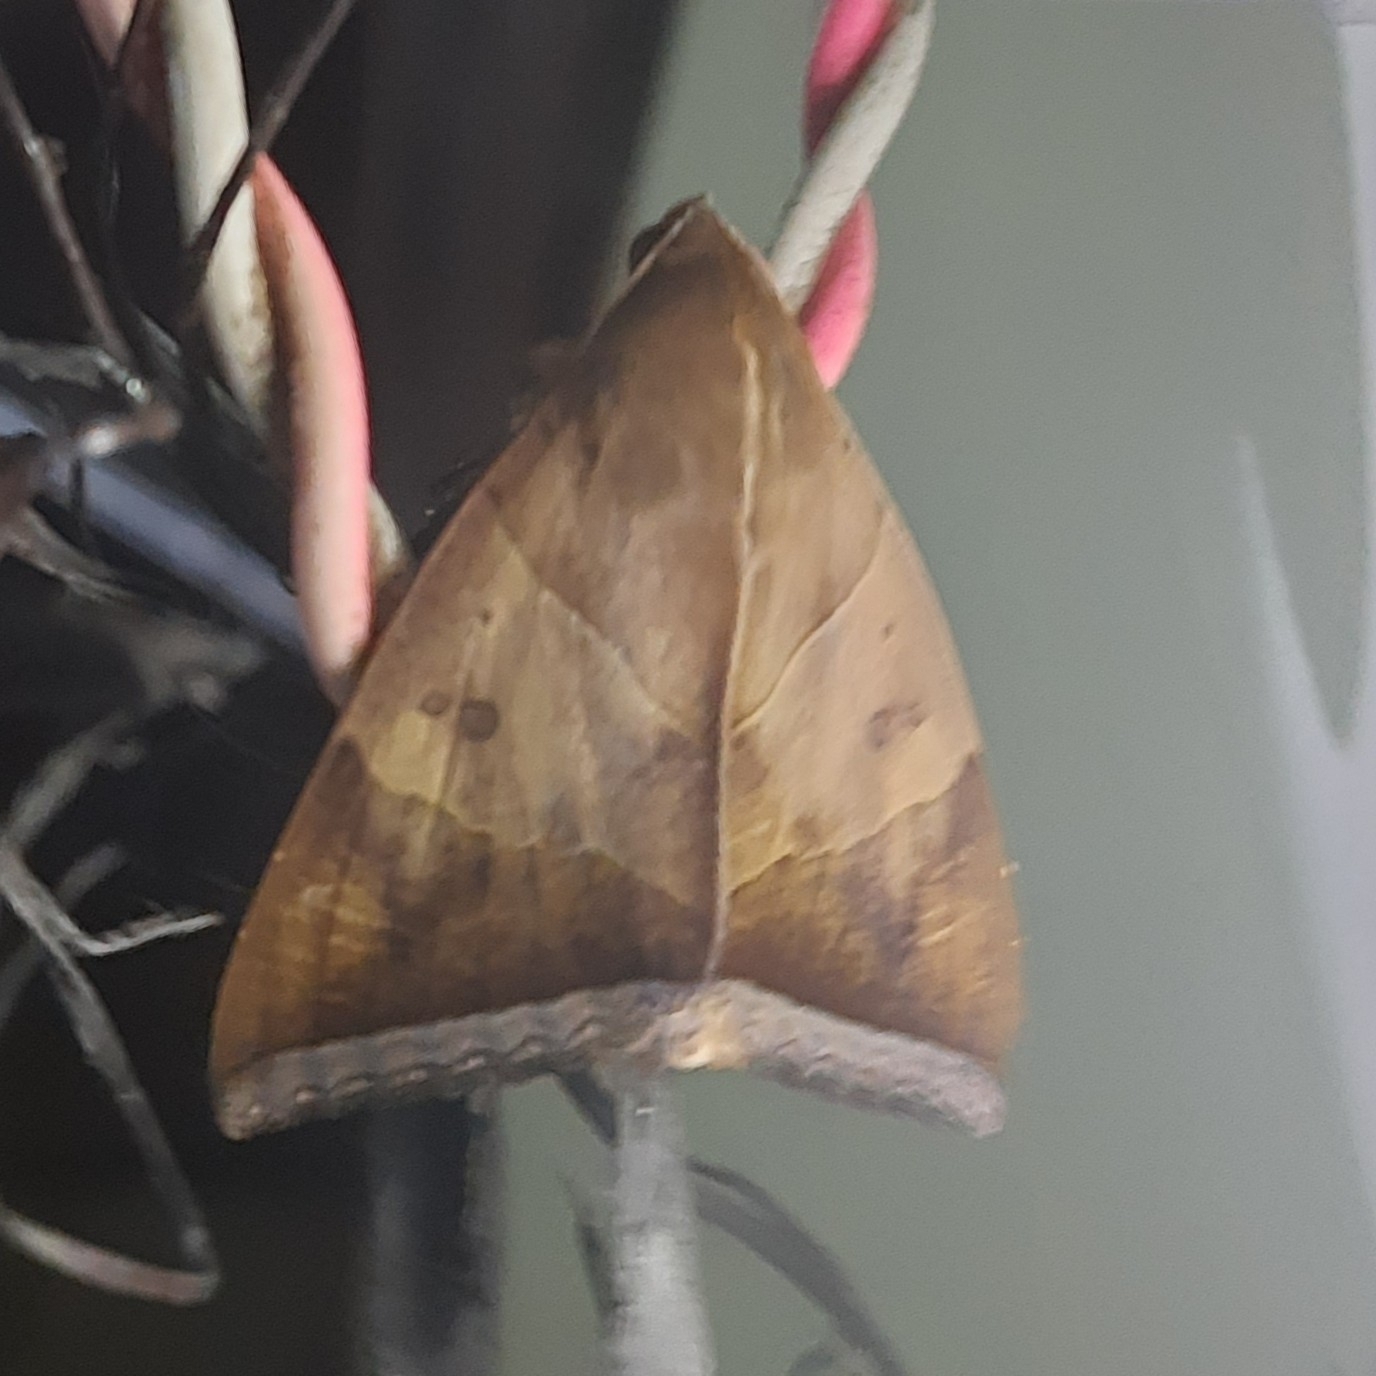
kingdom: Animalia
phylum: Arthropoda
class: Insecta
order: Lepidoptera
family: Erebidae
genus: Artena
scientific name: Artena dotata
